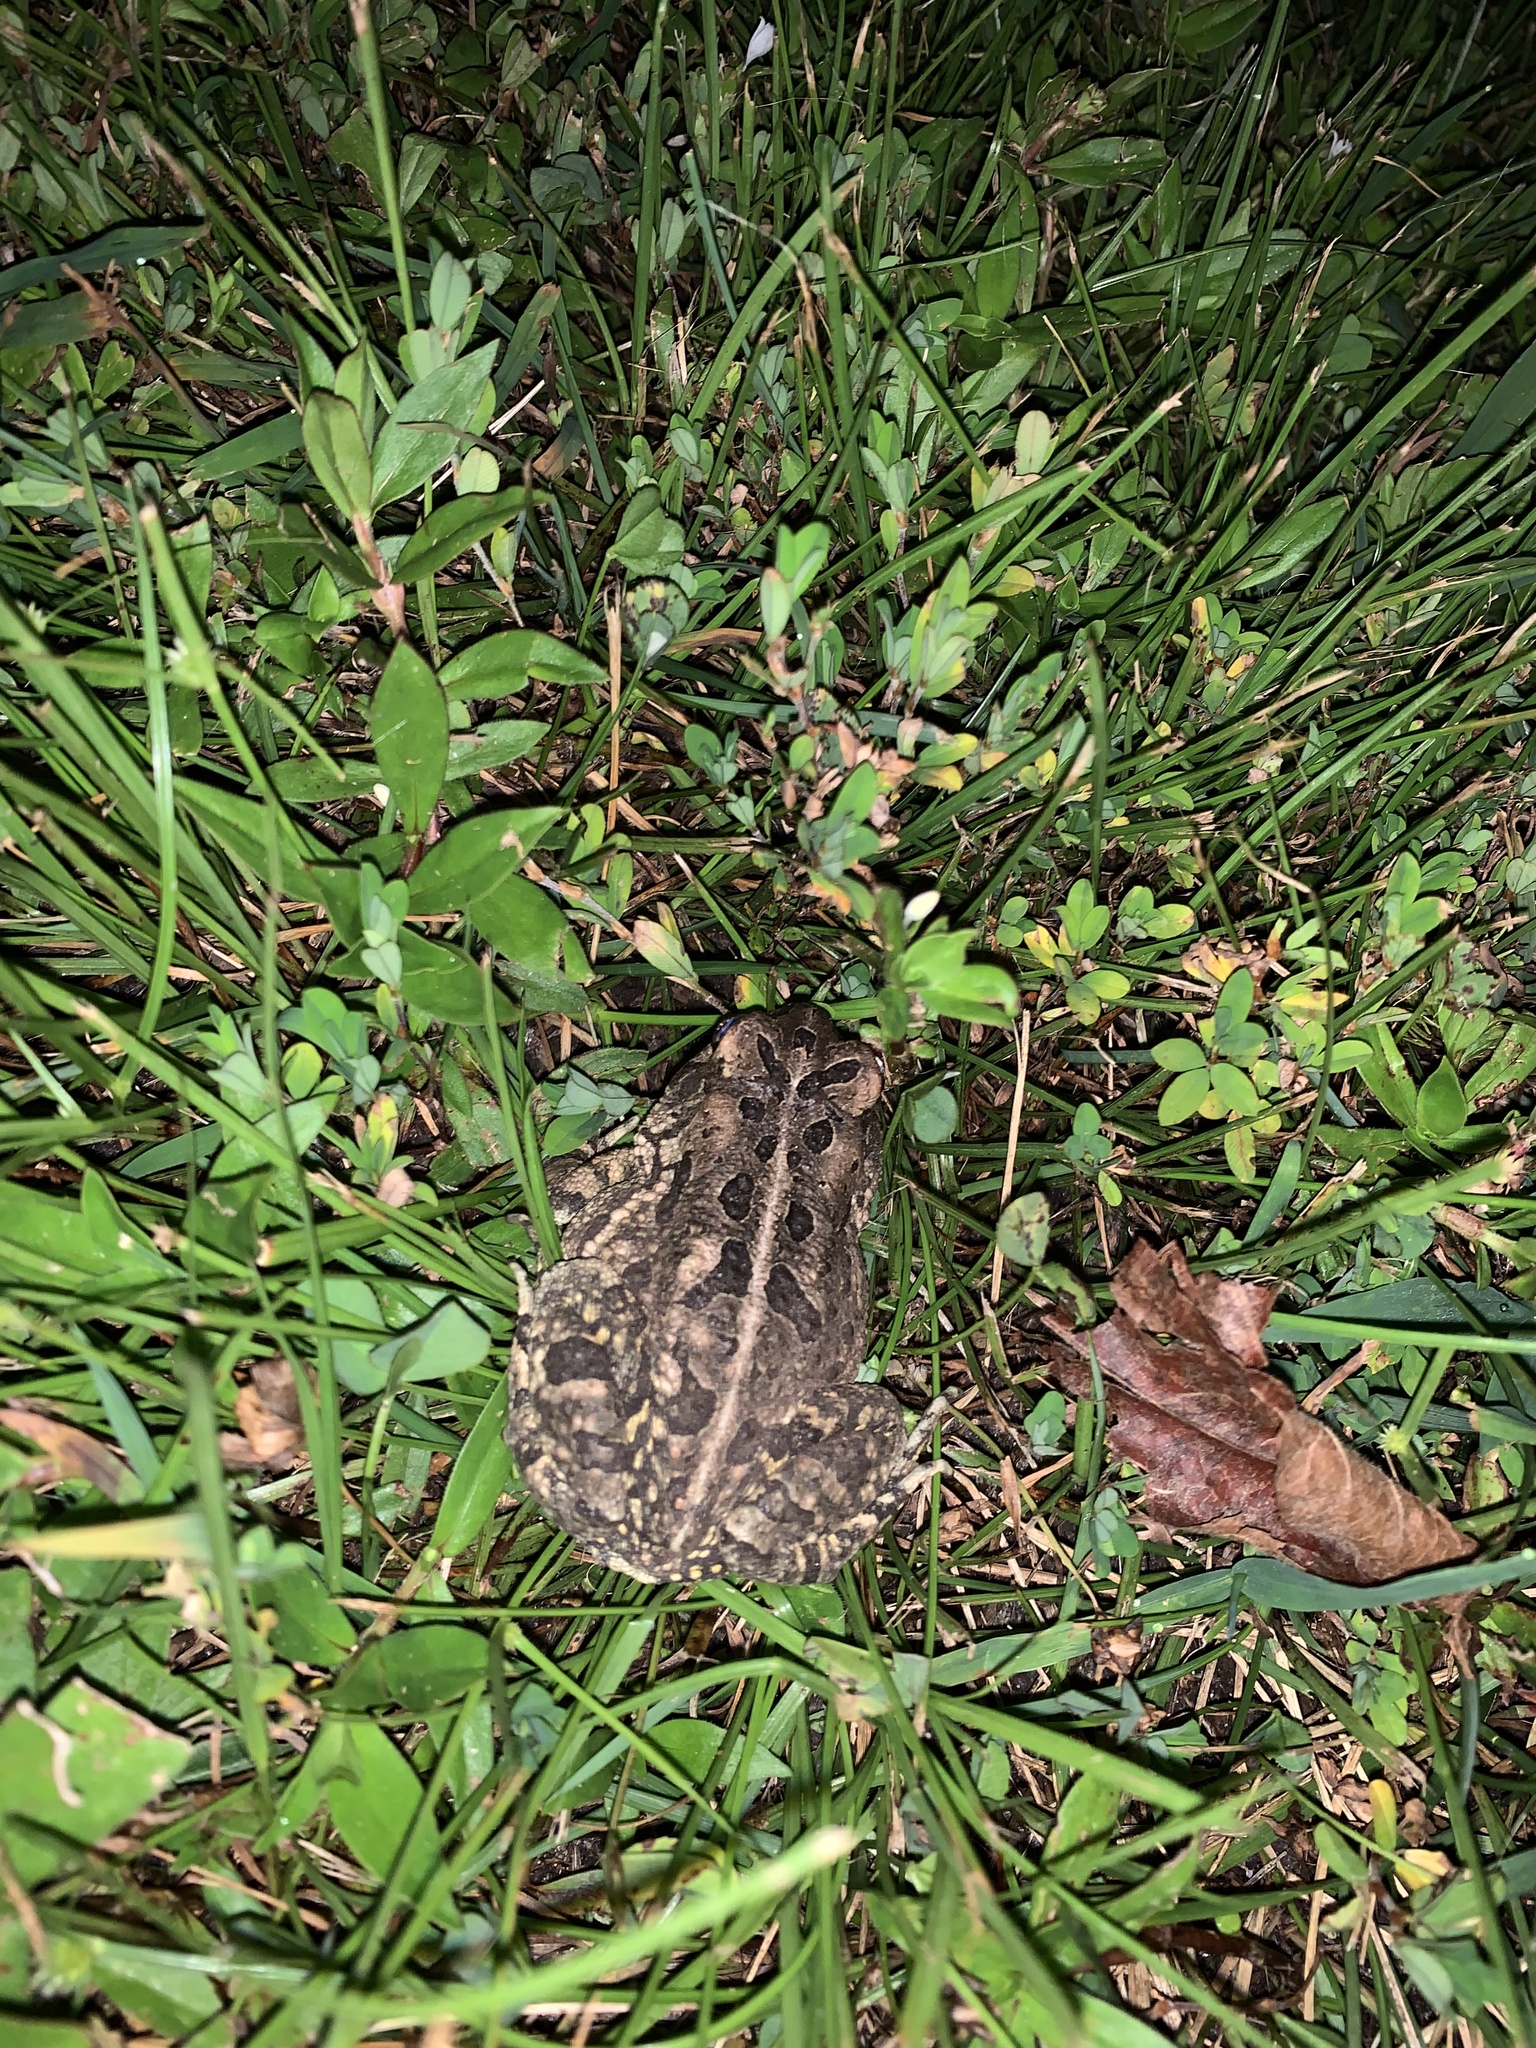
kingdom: Animalia
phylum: Chordata
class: Amphibia
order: Anura
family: Bufonidae
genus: Anaxyrus
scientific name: Anaxyrus fowleri
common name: Fowler's toad
